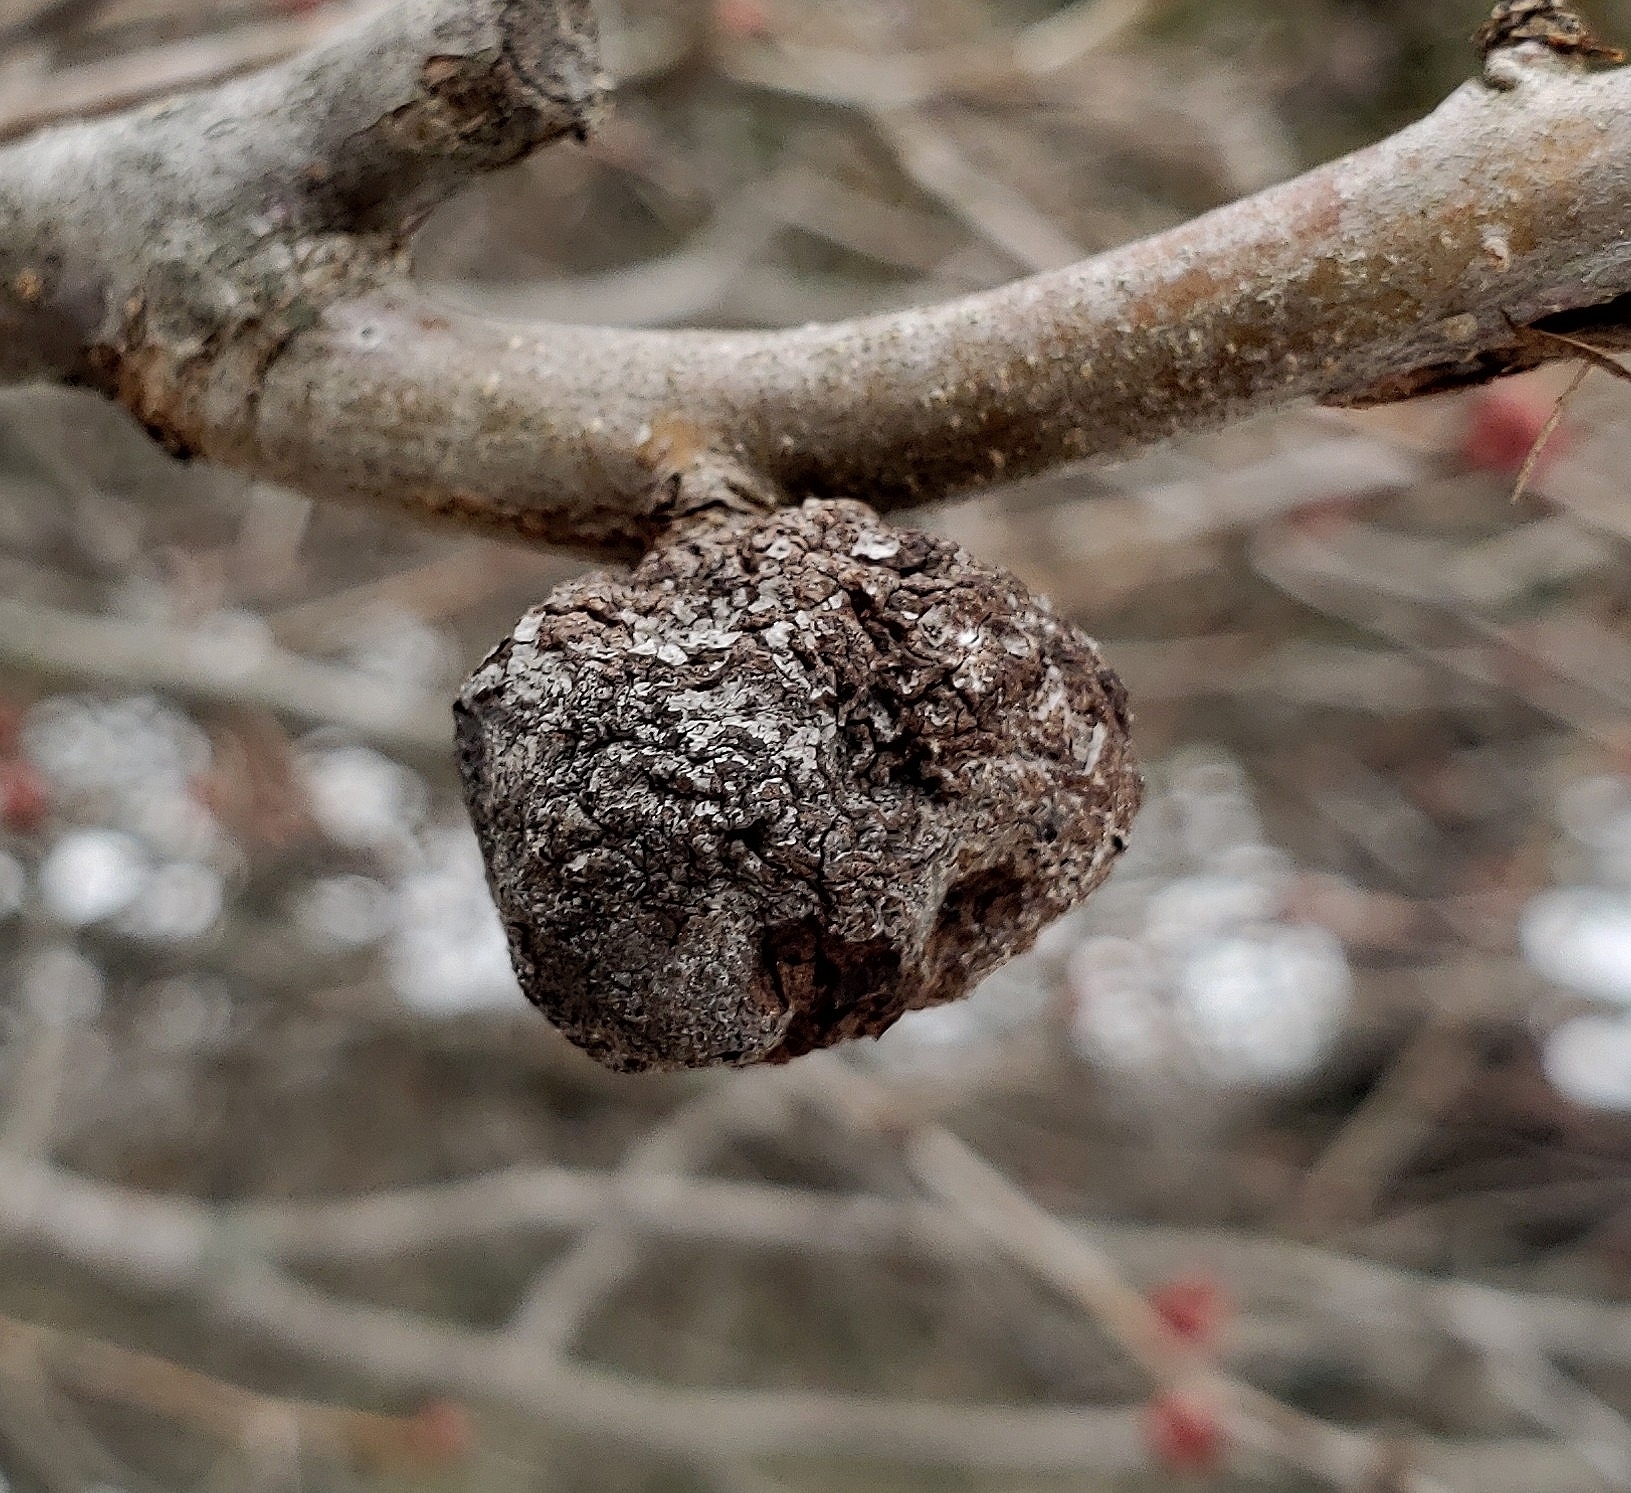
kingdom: Plantae
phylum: Tracheophyta
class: Magnoliopsida
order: Rosales
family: Rosaceae
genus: Chaenomeles
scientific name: Chaenomeles speciosa
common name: Japanese quince
